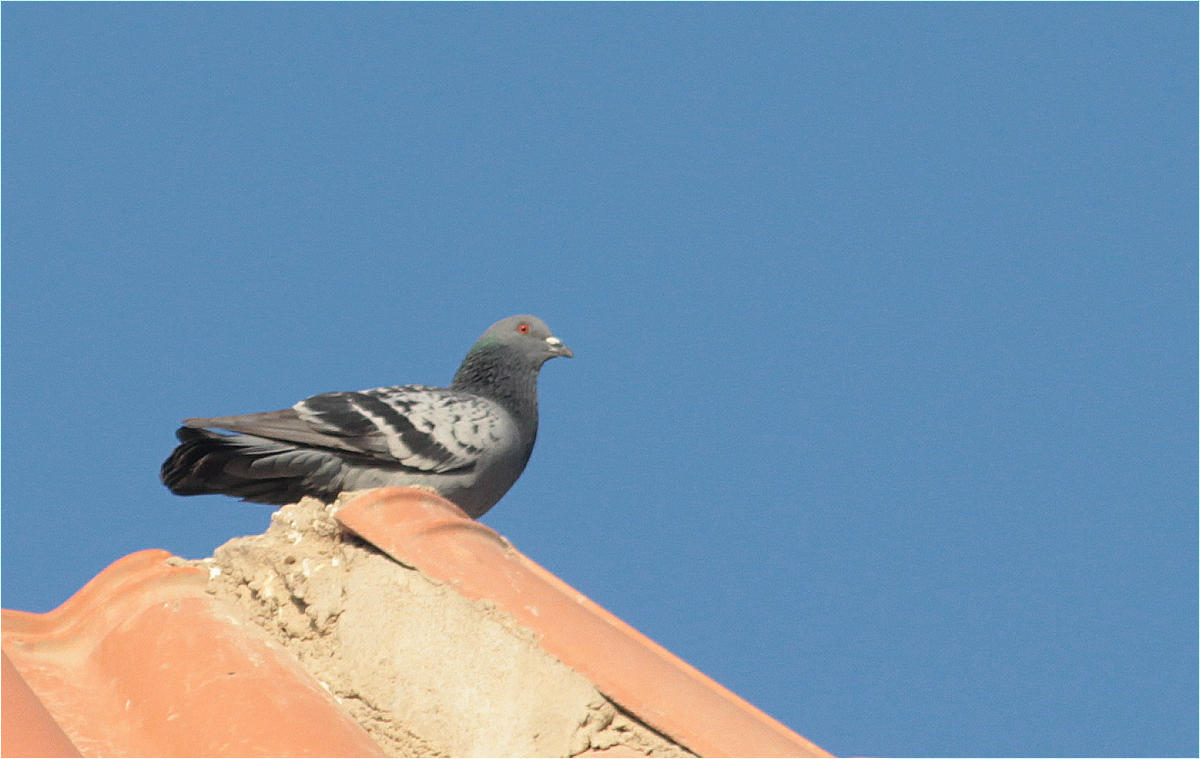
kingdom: Animalia
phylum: Chordata
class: Aves
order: Columbiformes
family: Columbidae
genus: Columba
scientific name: Columba livia
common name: Rock pigeon
